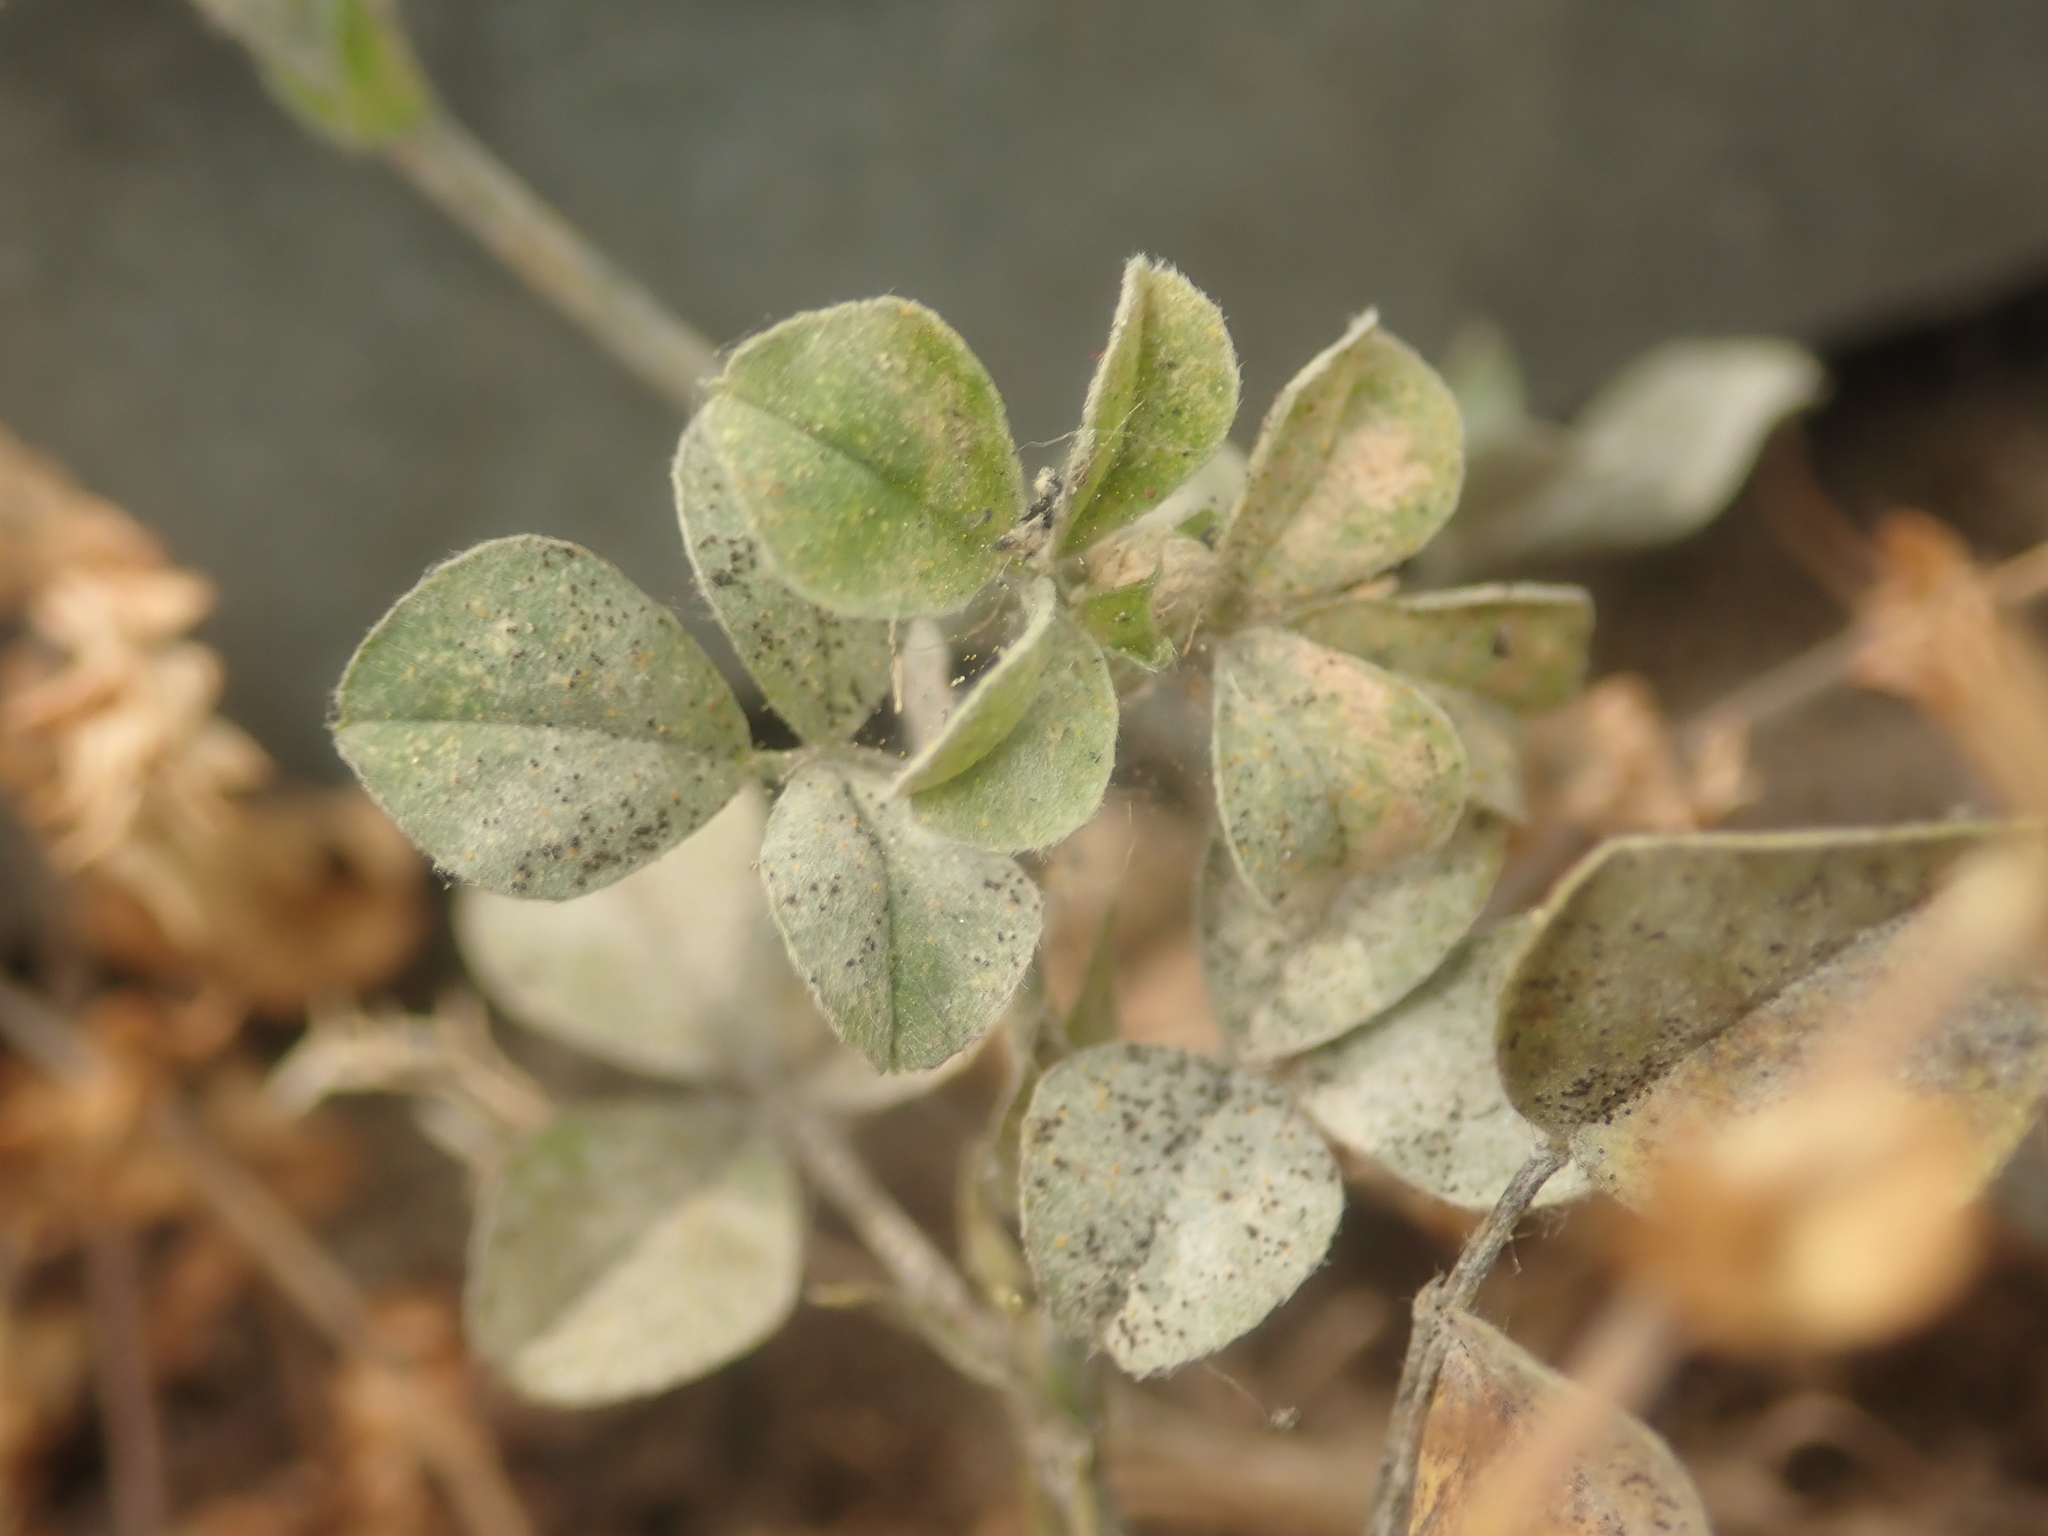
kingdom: Fungi
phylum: Ascomycota
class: Leotiomycetes
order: Helotiales
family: Erysiphaceae
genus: Erysiphe
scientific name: Erysiphe pisi
